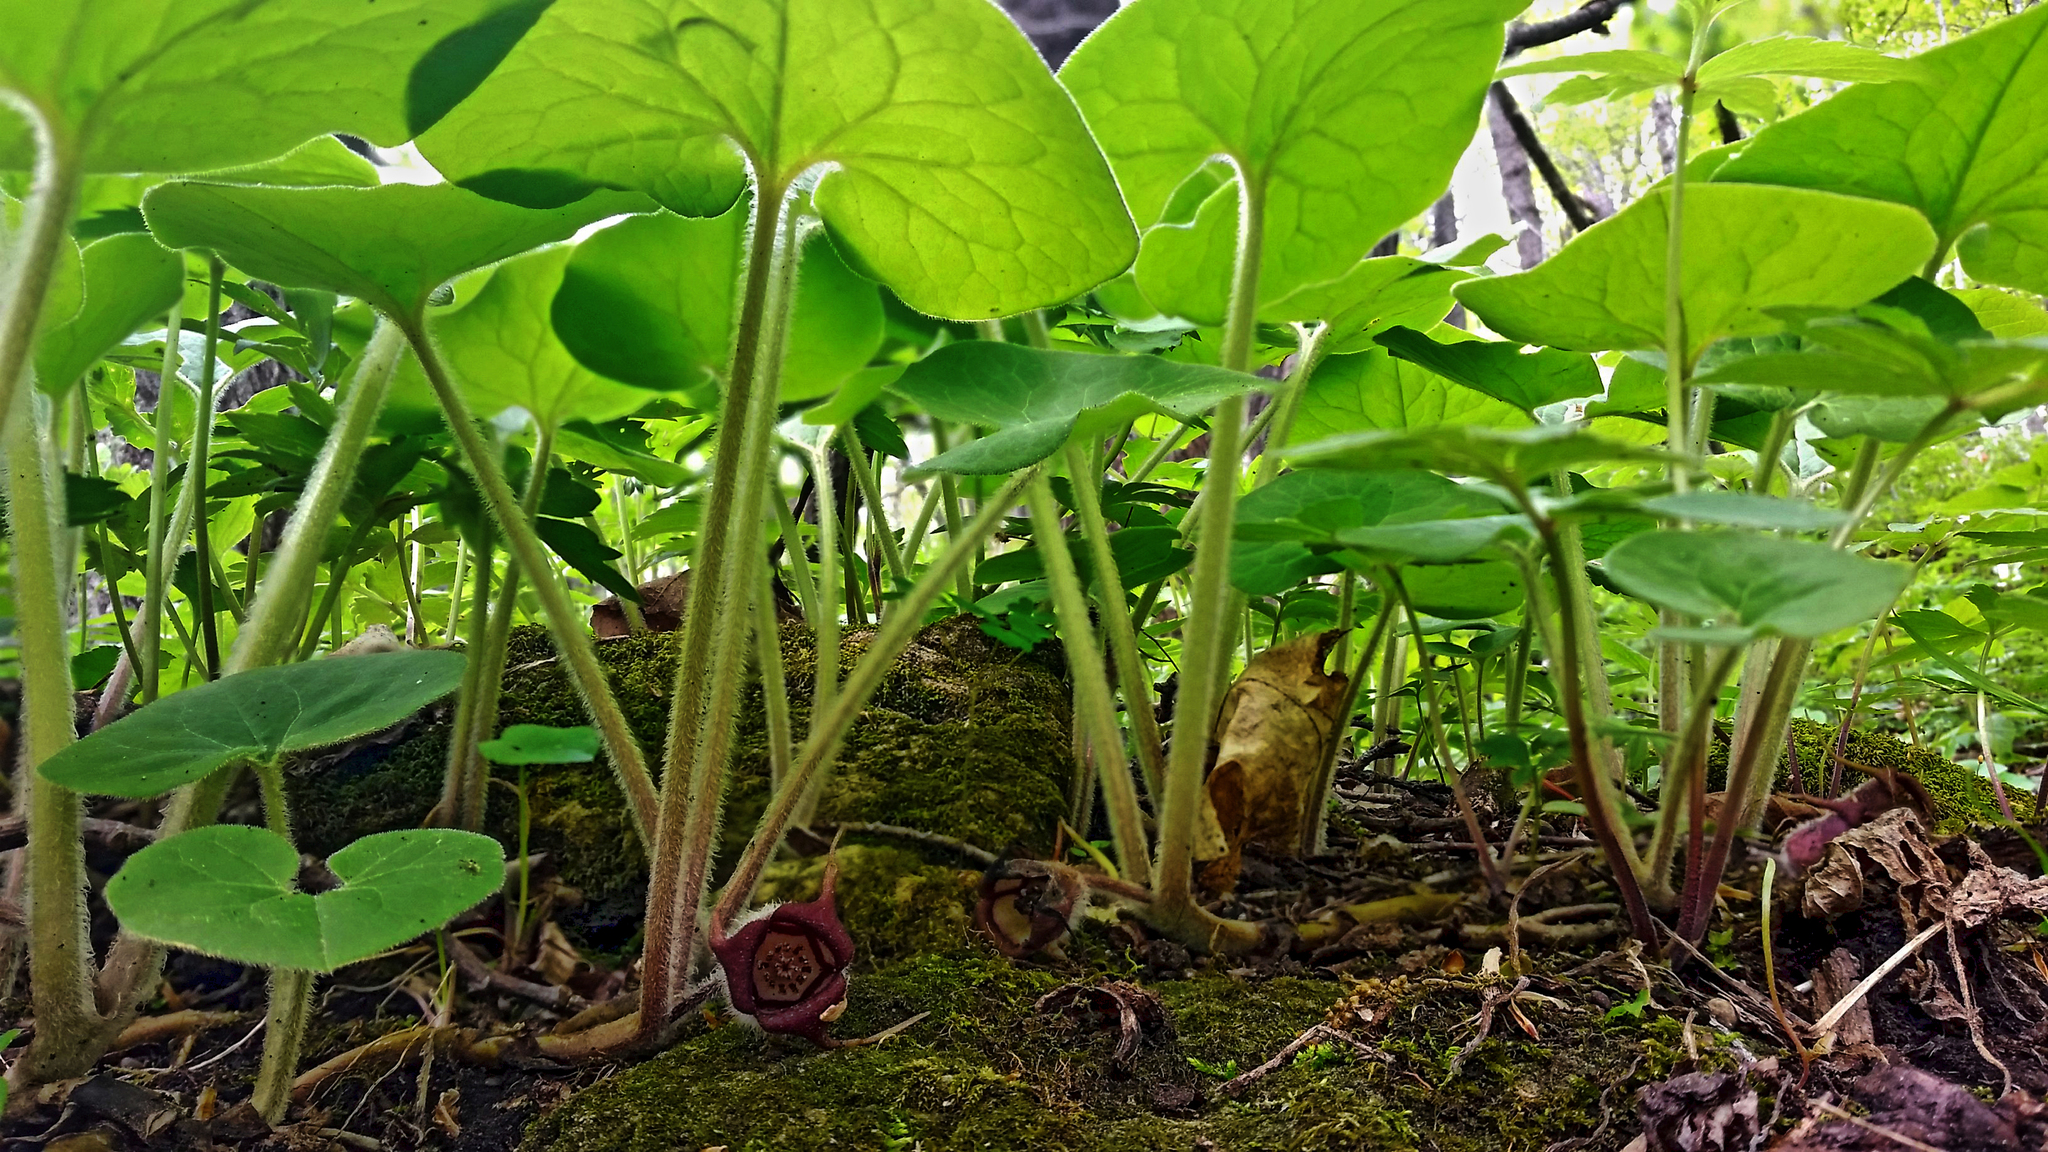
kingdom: Plantae
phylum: Tracheophyta
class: Magnoliopsida
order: Piperales
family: Aristolochiaceae
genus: Asarum
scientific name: Asarum canadense
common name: Wild ginger
